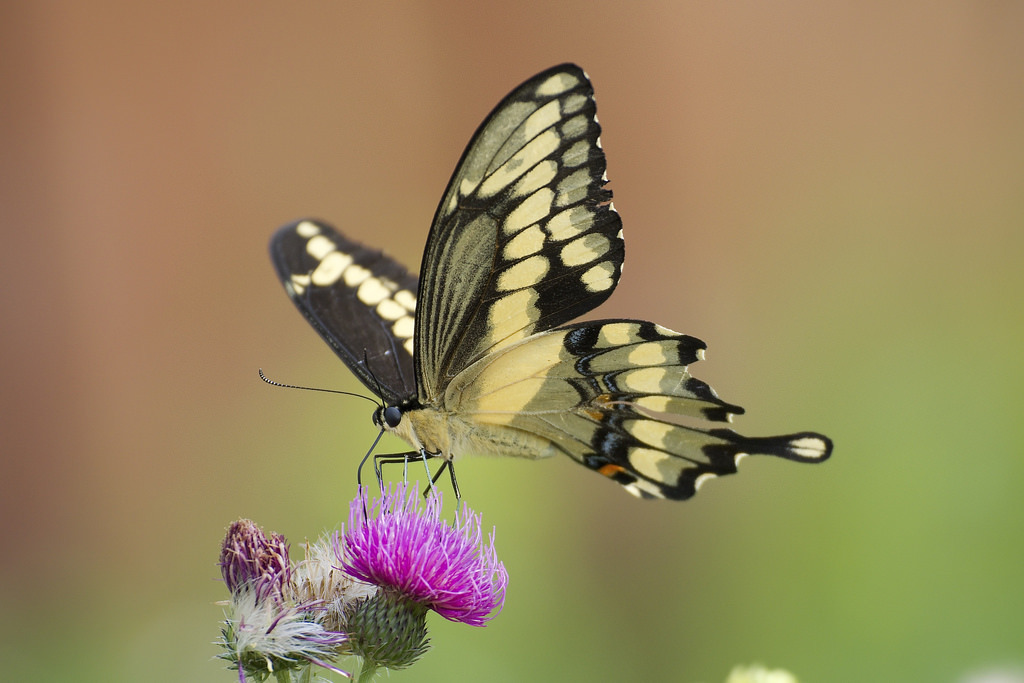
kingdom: Animalia
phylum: Arthropoda
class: Insecta
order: Lepidoptera
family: Papilionidae
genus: Papilio
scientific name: Papilio cresphontes
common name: Giant swallowtail
